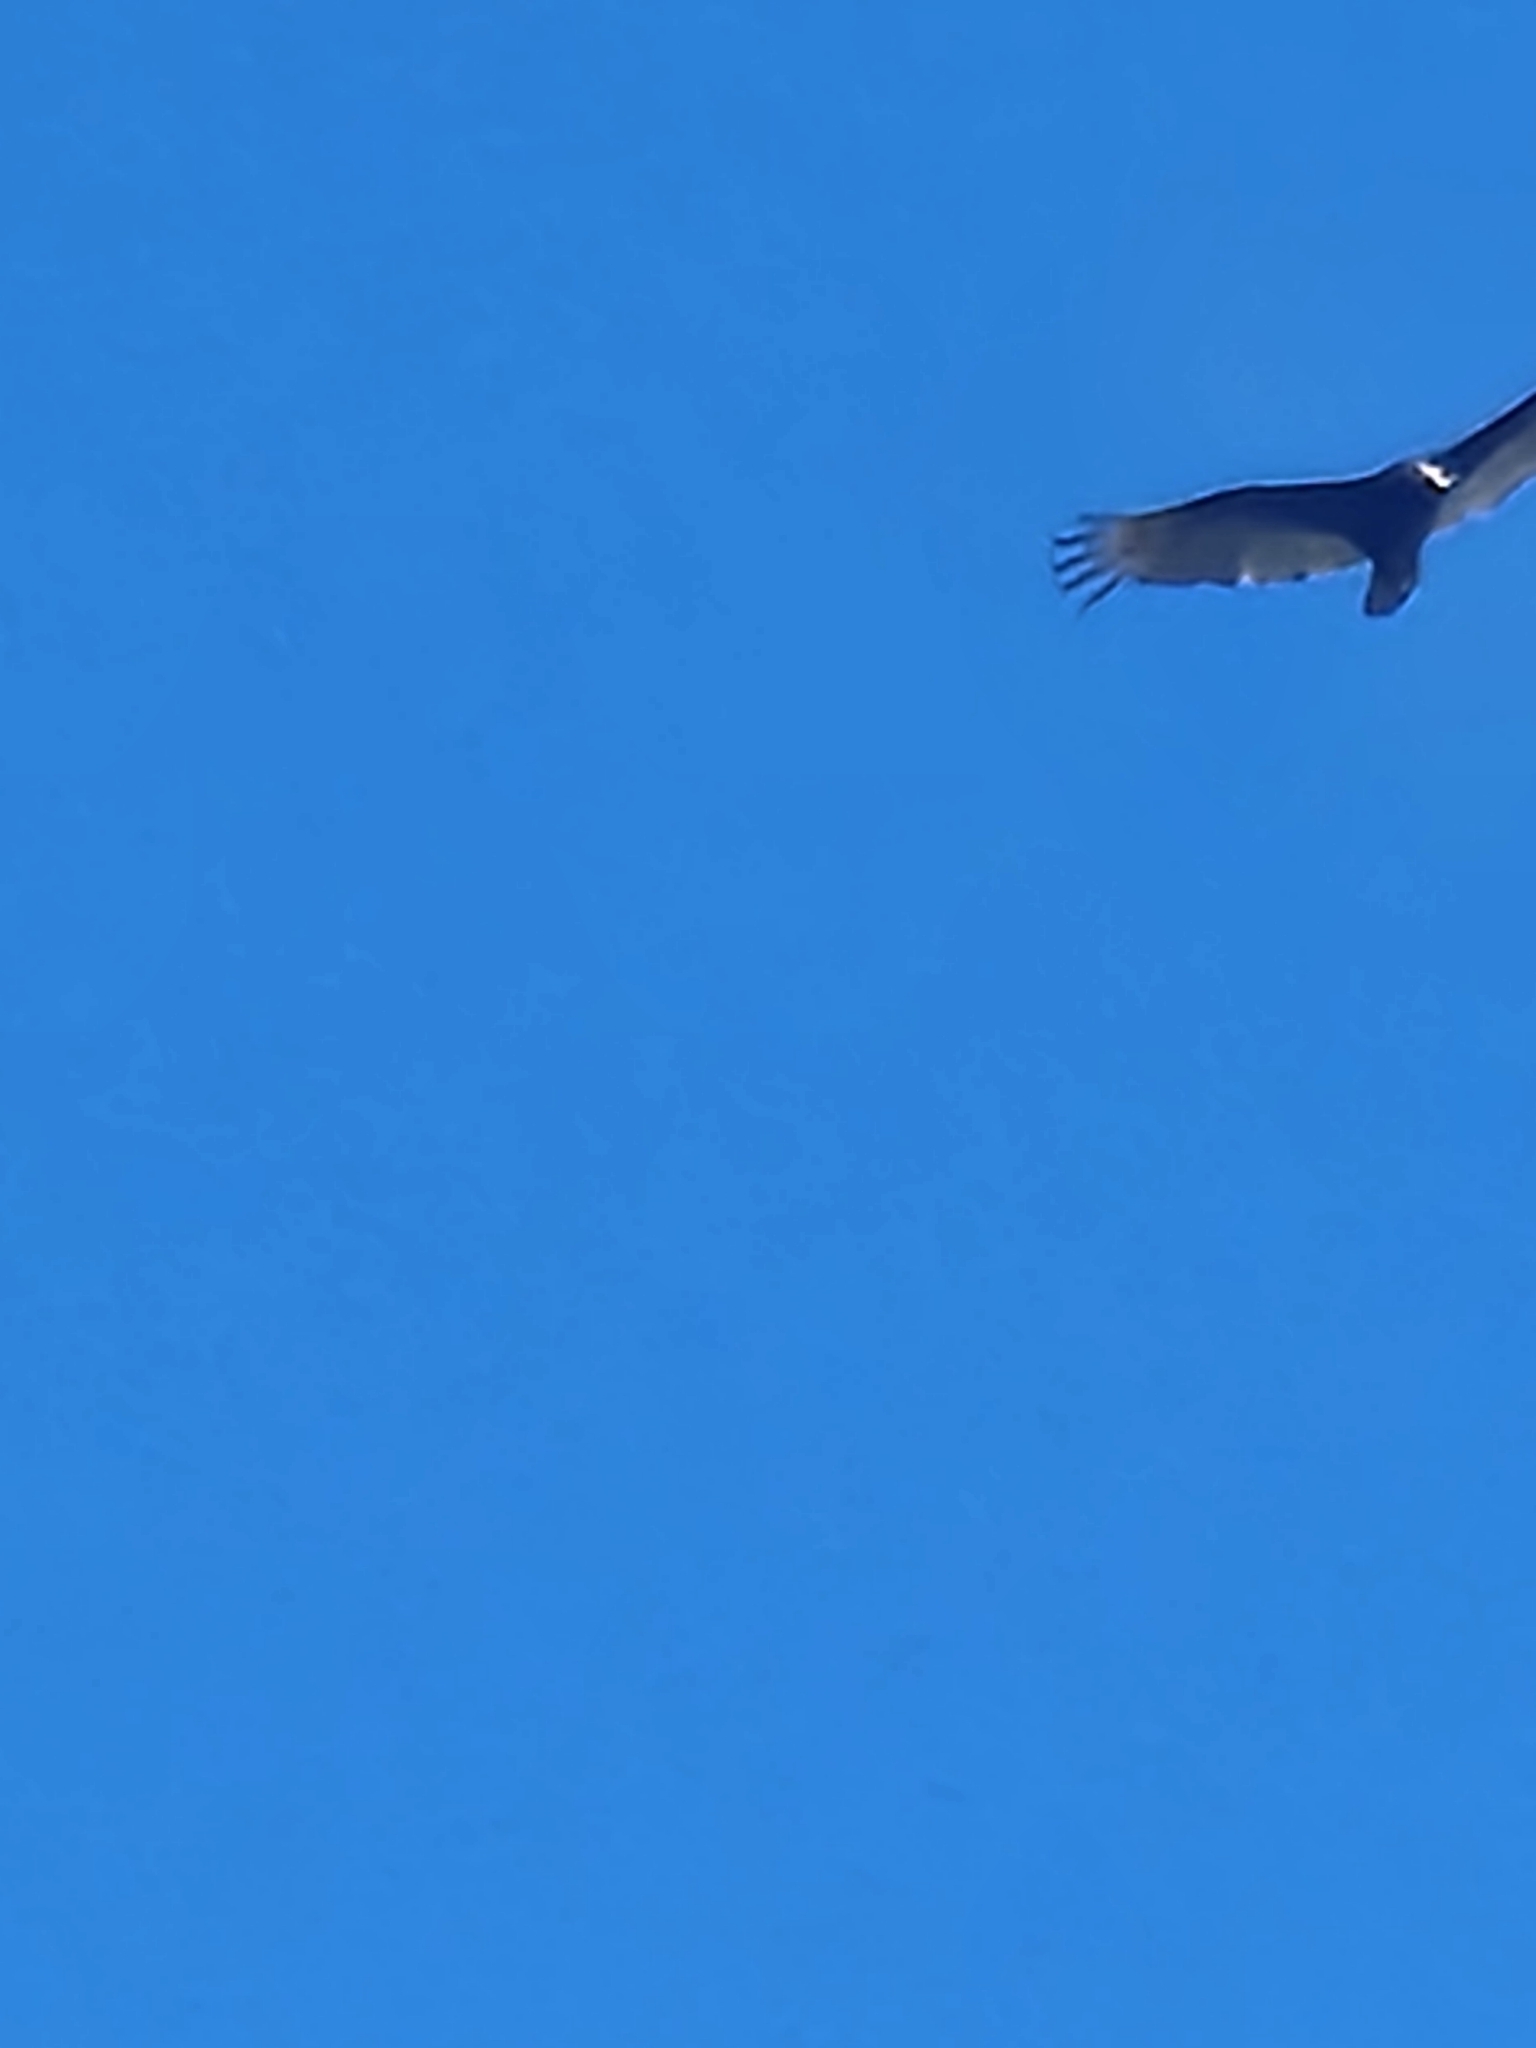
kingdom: Animalia
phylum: Chordata
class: Aves
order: Accipitriformes
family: Cathartidae
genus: Cathartes
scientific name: Cathartes aura
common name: Turkey vulture
